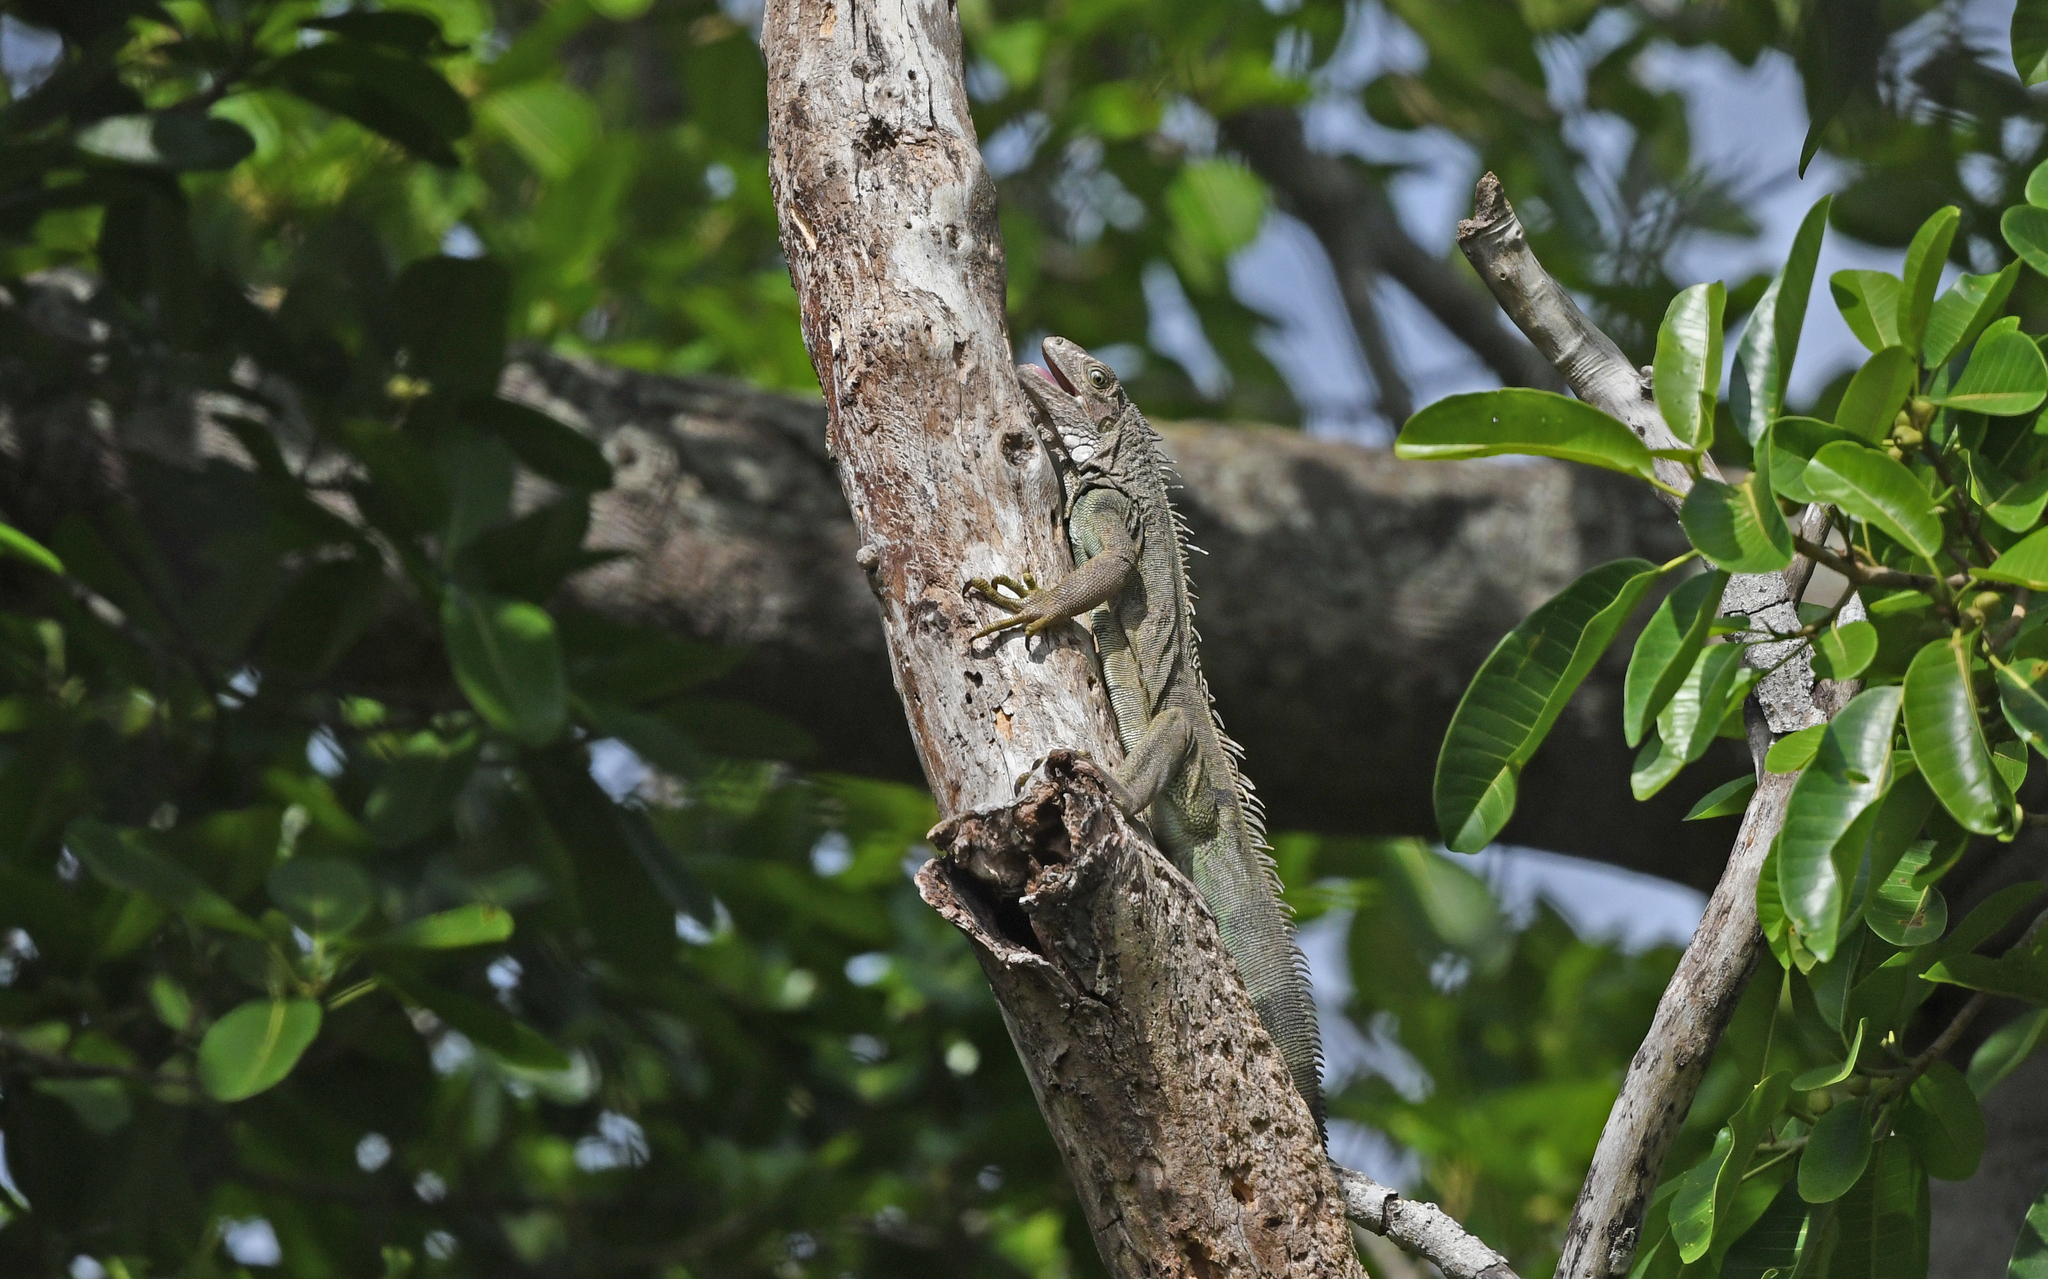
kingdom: Animalia
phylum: Chordata
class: Squamata
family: Iguanidae
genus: Iguana
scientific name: Iguana iguana
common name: Green iguana
